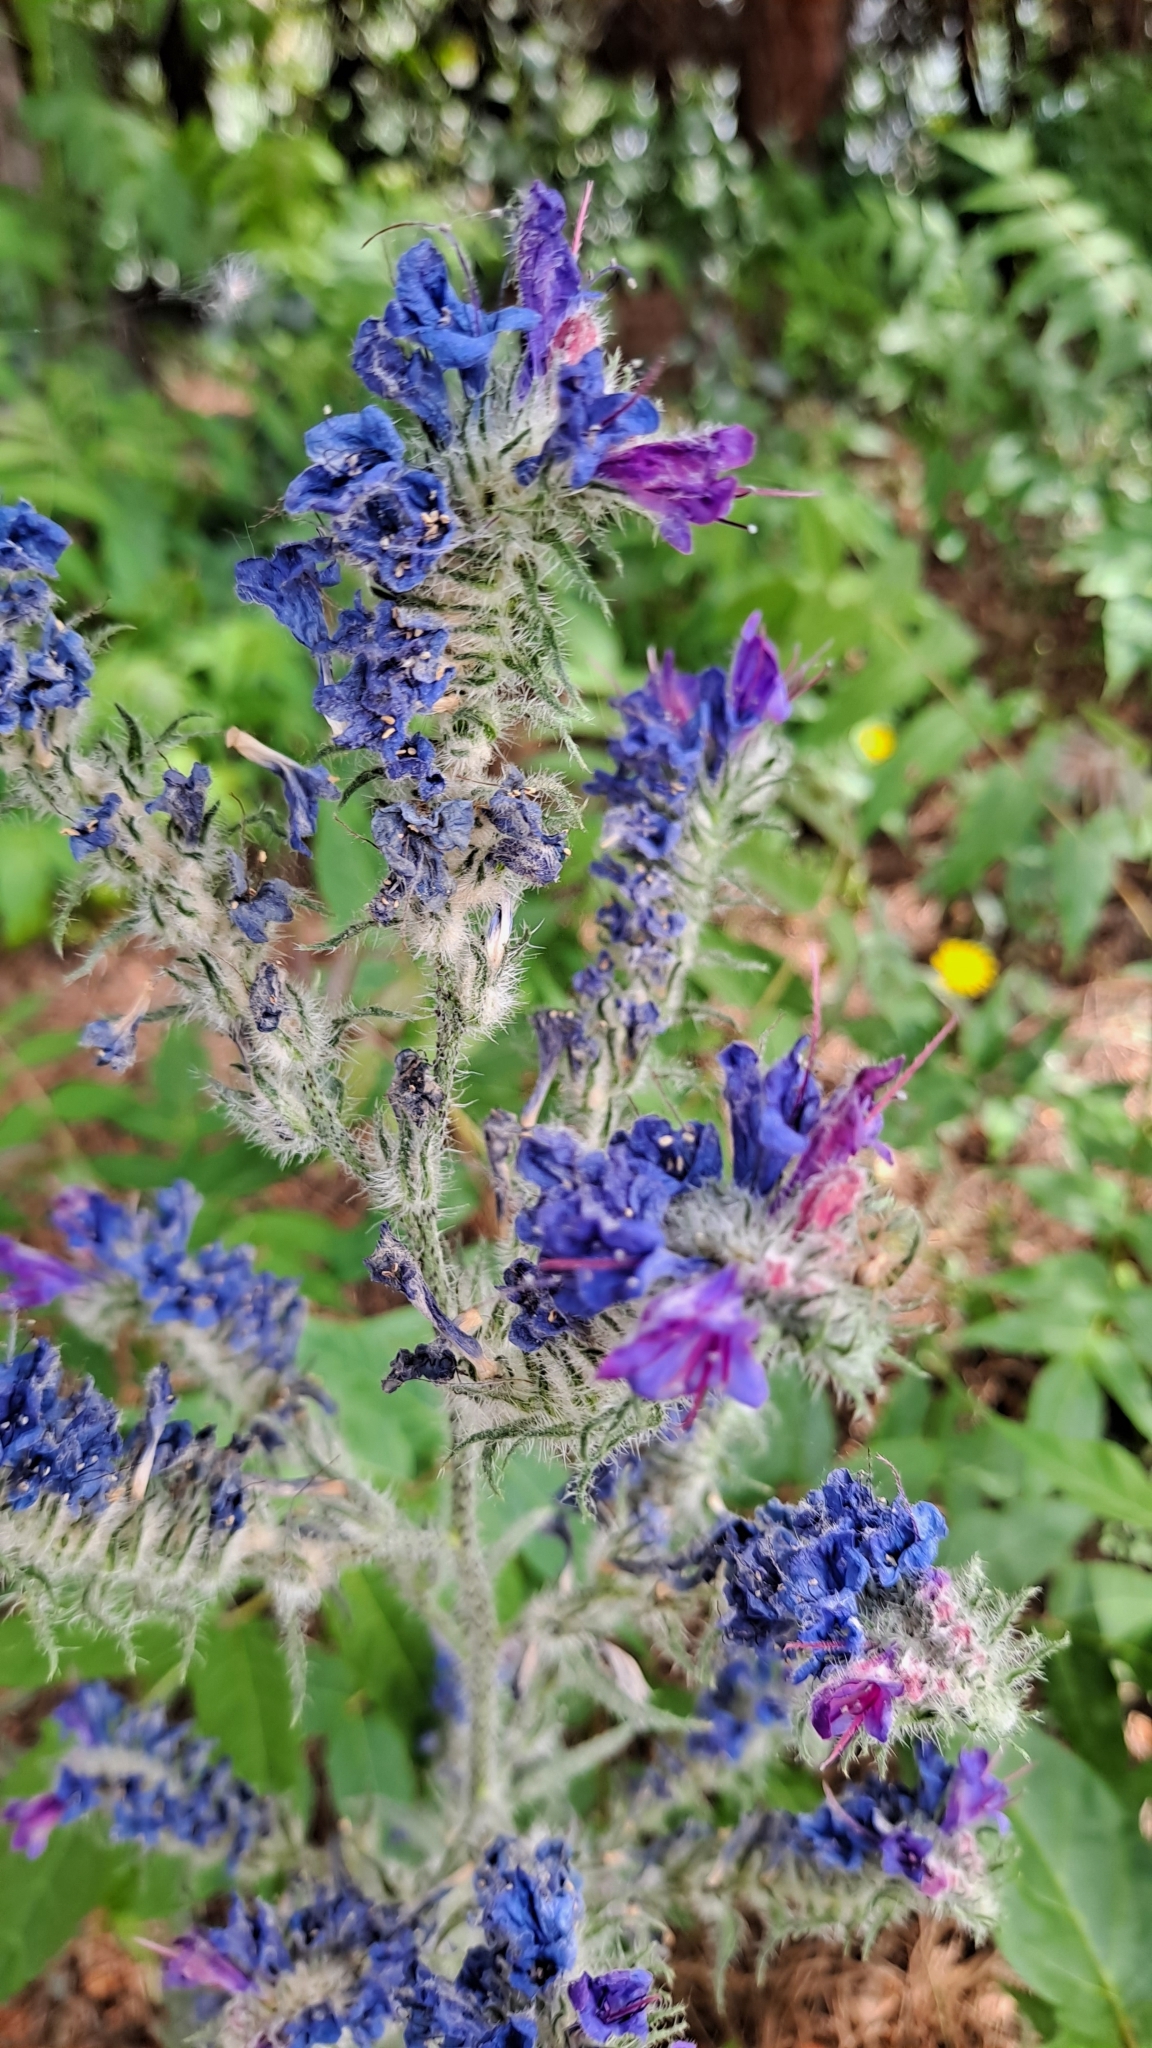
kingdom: Plantae
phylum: Tracheophyta
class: Magnoliopsida
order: Boraginales
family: Boraginaceae
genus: Echium
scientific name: Echium vulgare
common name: Common viper's bugloss
